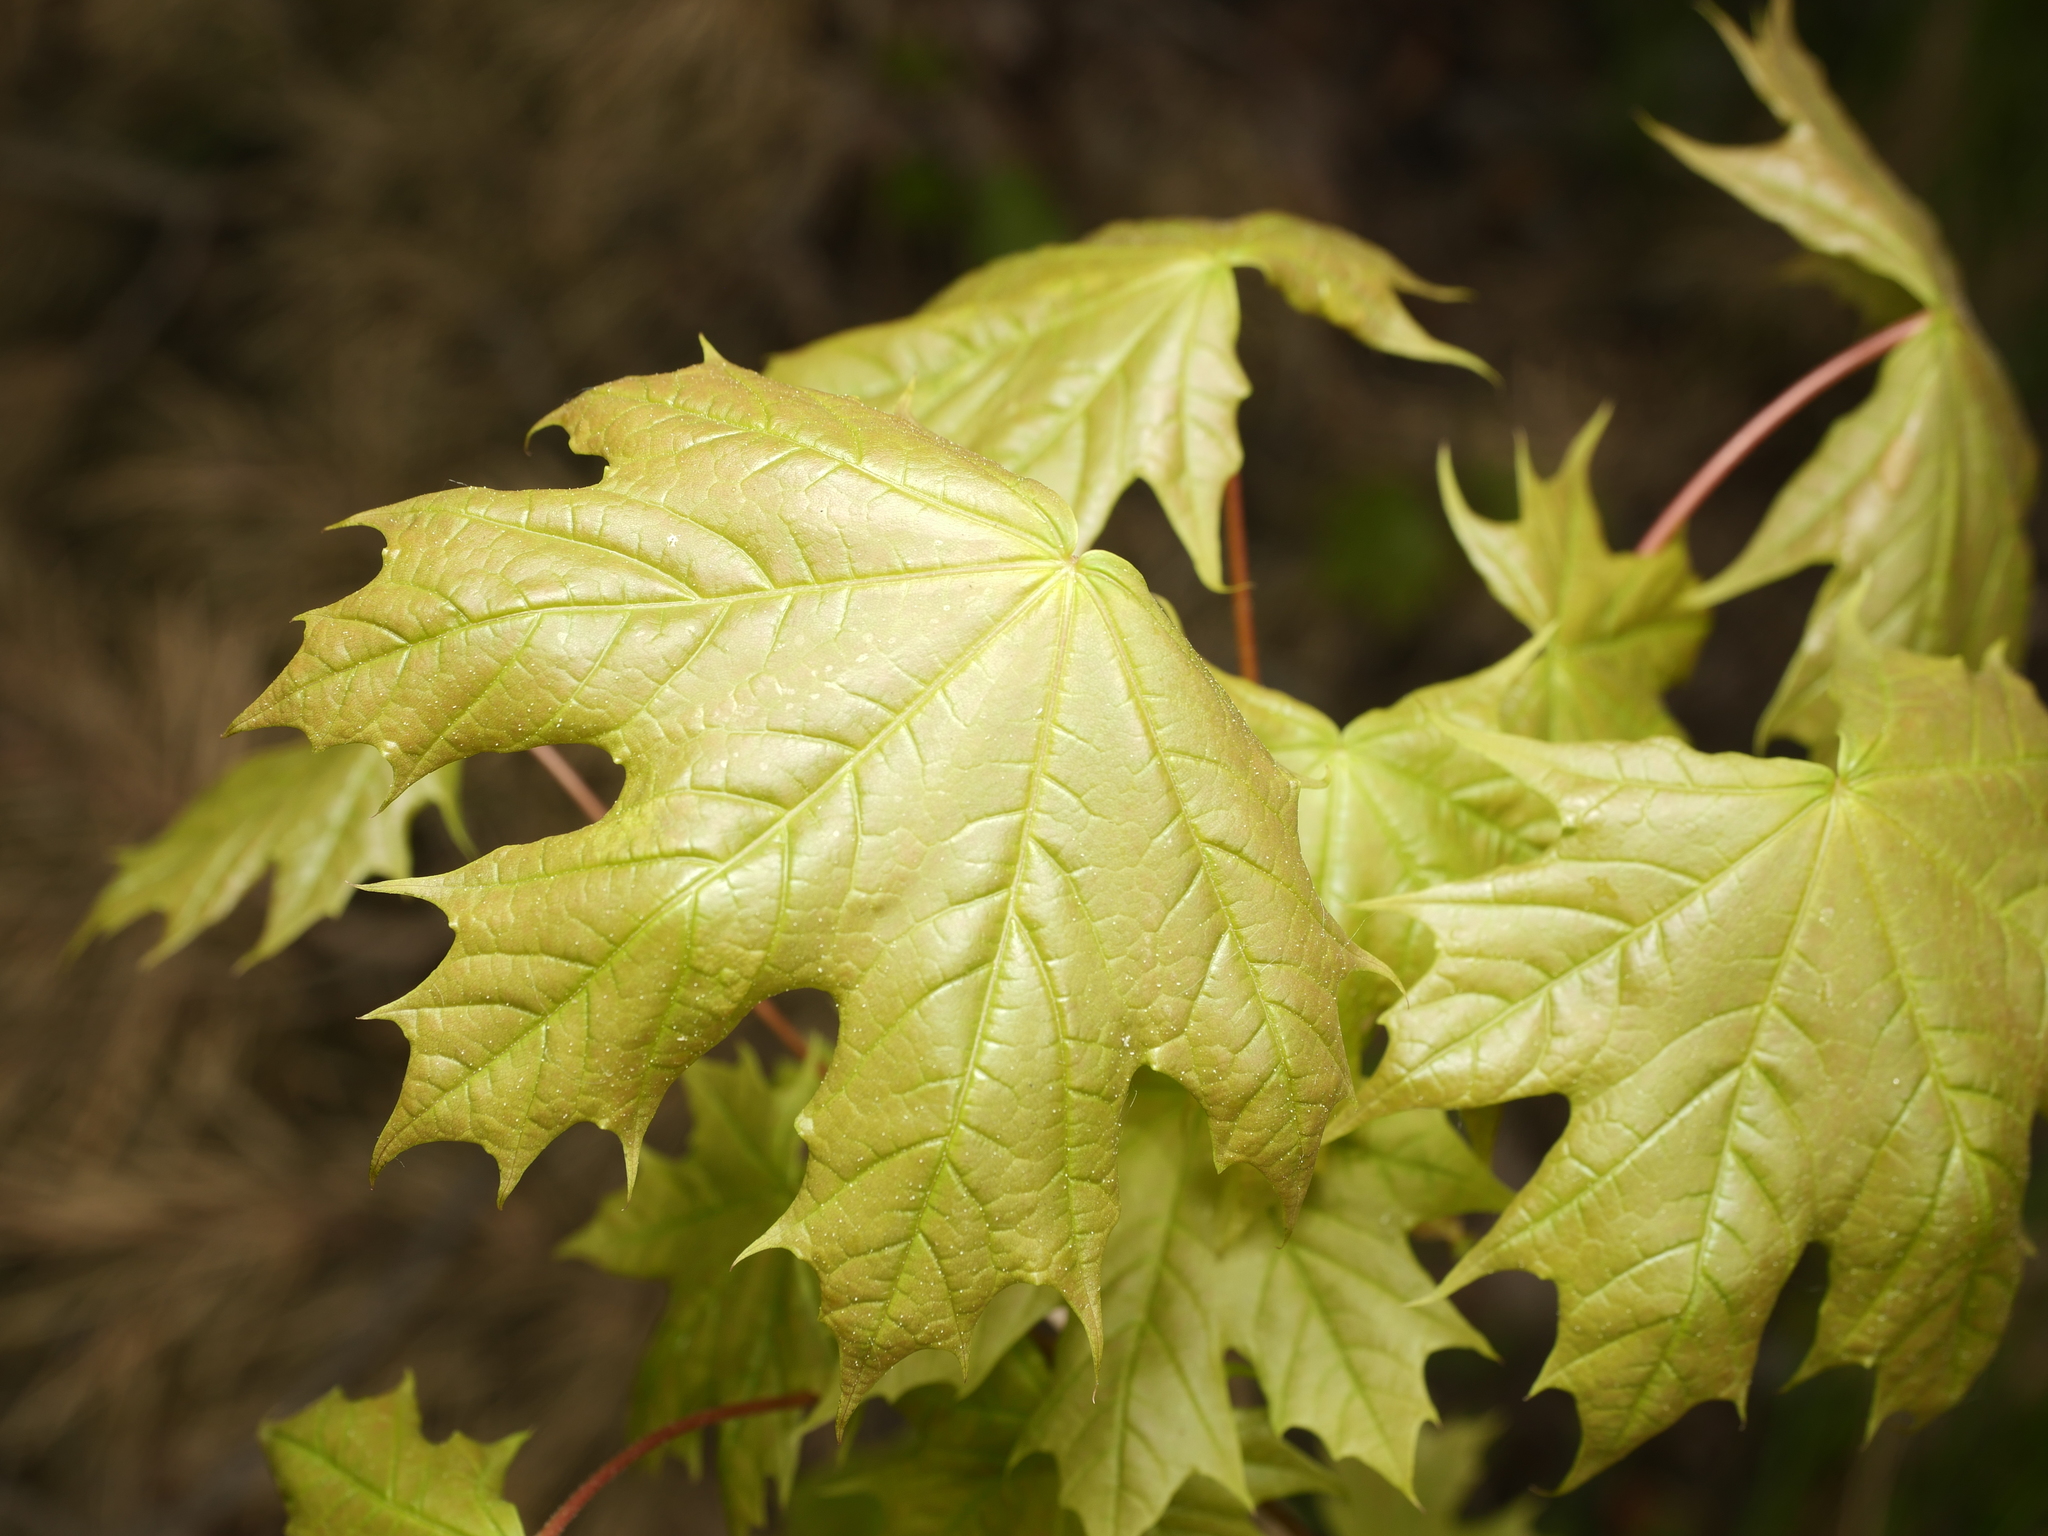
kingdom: Plantae
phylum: Tracheophyta
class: Magnoliopsida
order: Sapindales
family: Sapindaceae
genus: Acer
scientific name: Acer platanoides
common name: Norway maple
